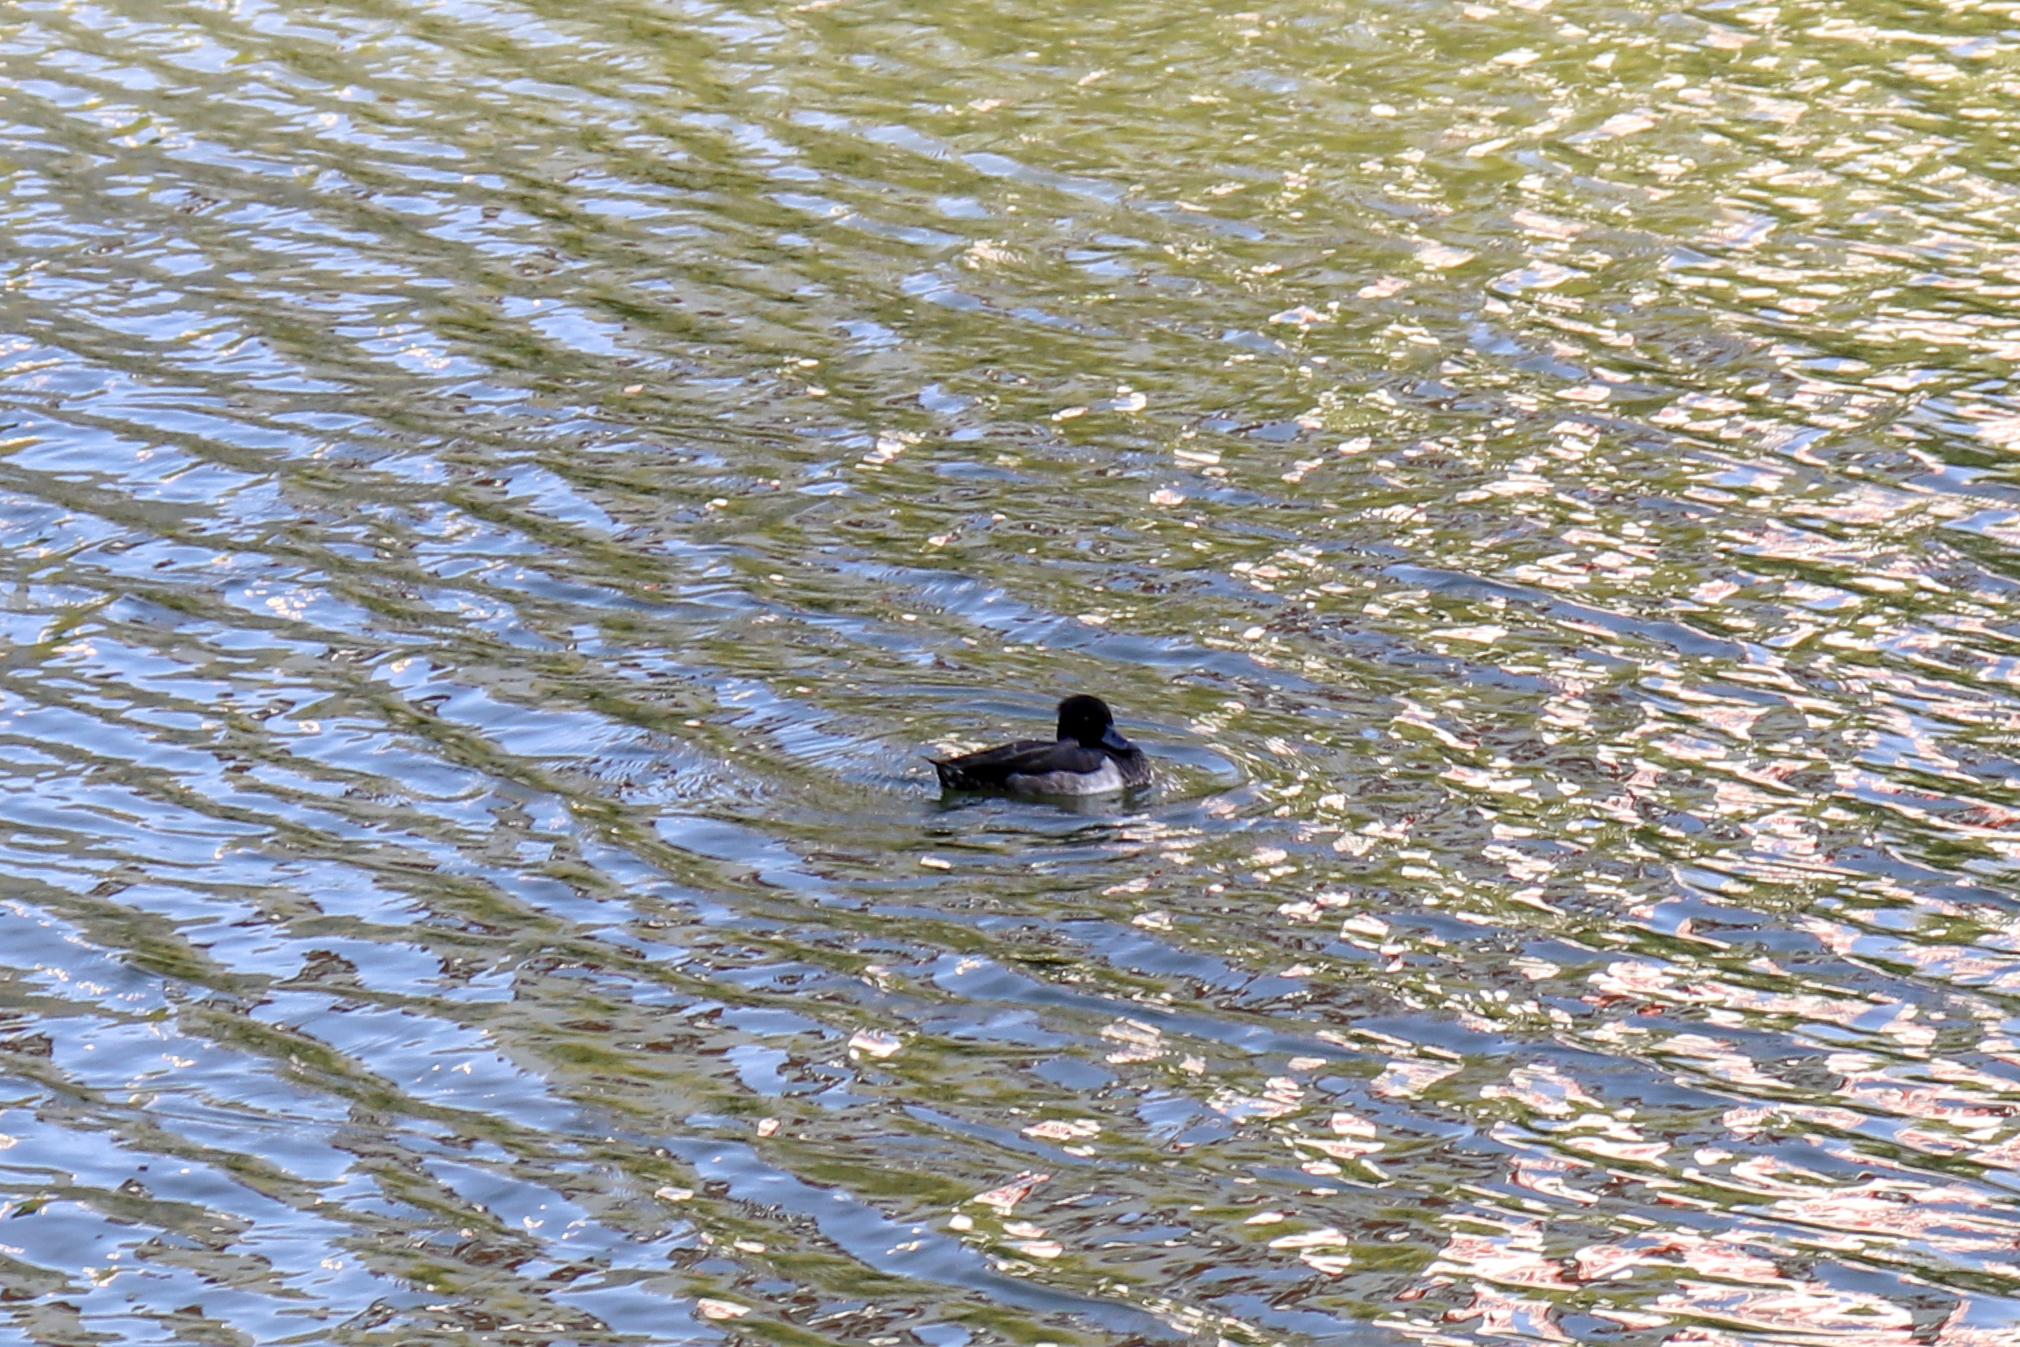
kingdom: Animalia
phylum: Chordata
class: Aves
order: Anseriformes
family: Anatidae
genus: Aythya
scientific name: Aythya fuligula
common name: Tufted duck
